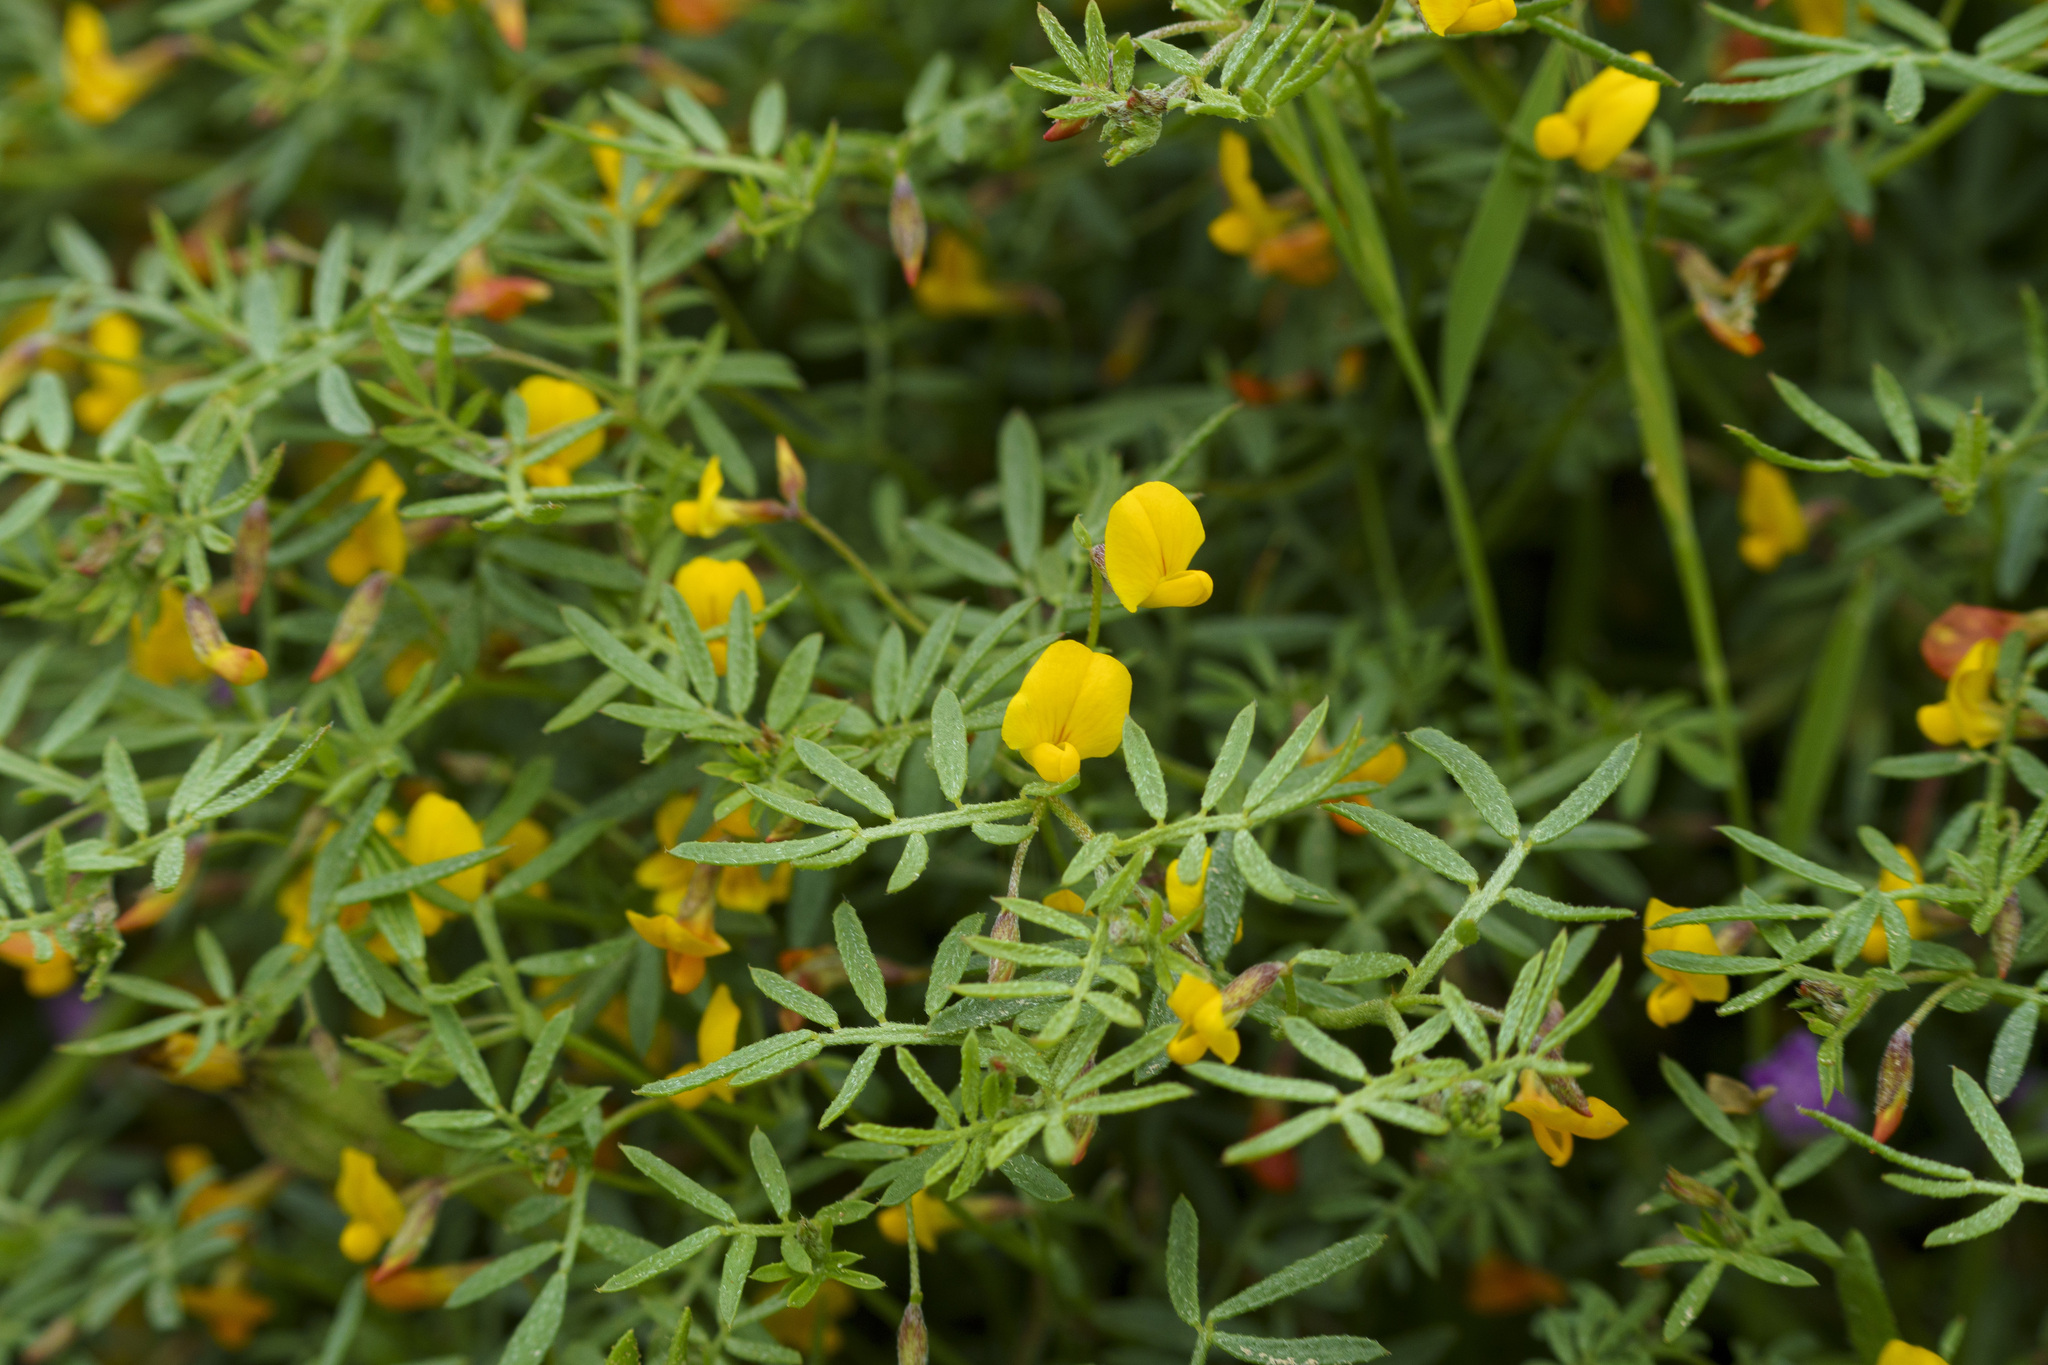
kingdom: Plantae
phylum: Tracheophyta
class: Magnoliopsida
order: Fabales
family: Fabaceae
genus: Acmispon
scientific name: Acmispon strigosus
